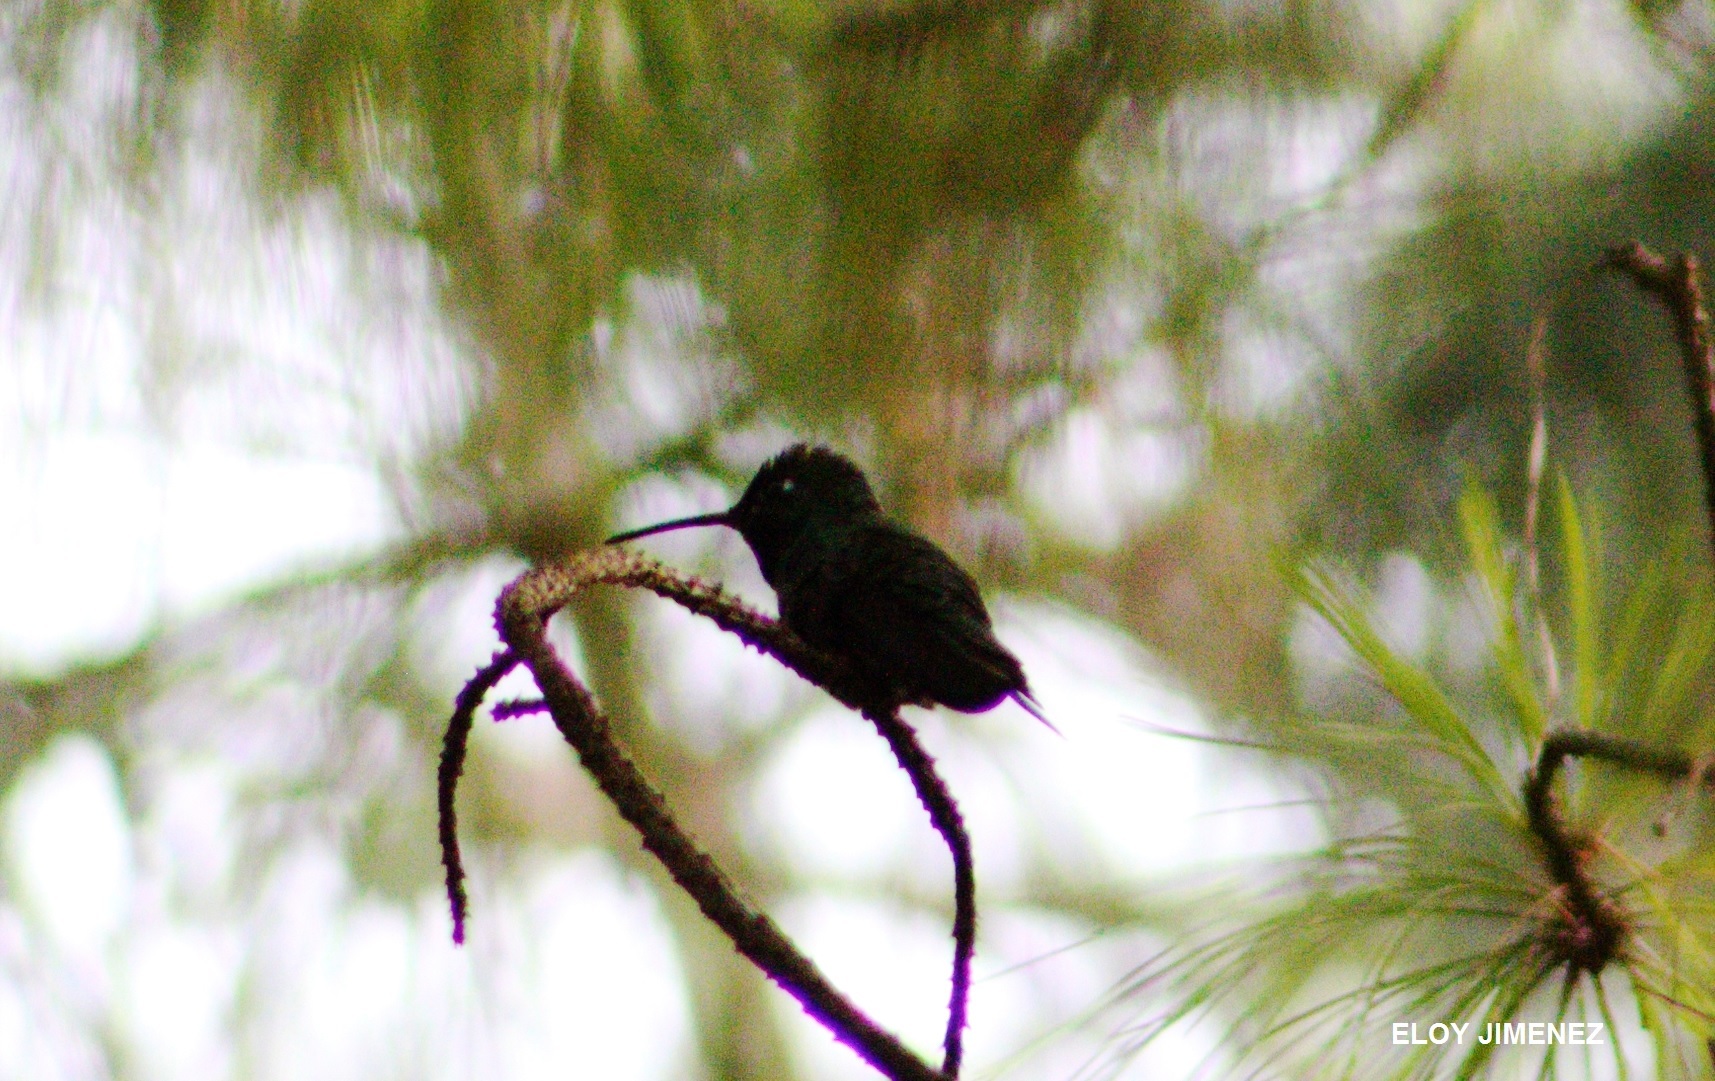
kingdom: Animalia
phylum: Chordata
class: Aves
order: Apodiformes
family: Trochilidae
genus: Eugenes
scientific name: Eugenes fulgens
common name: Magnificent hummingbird
